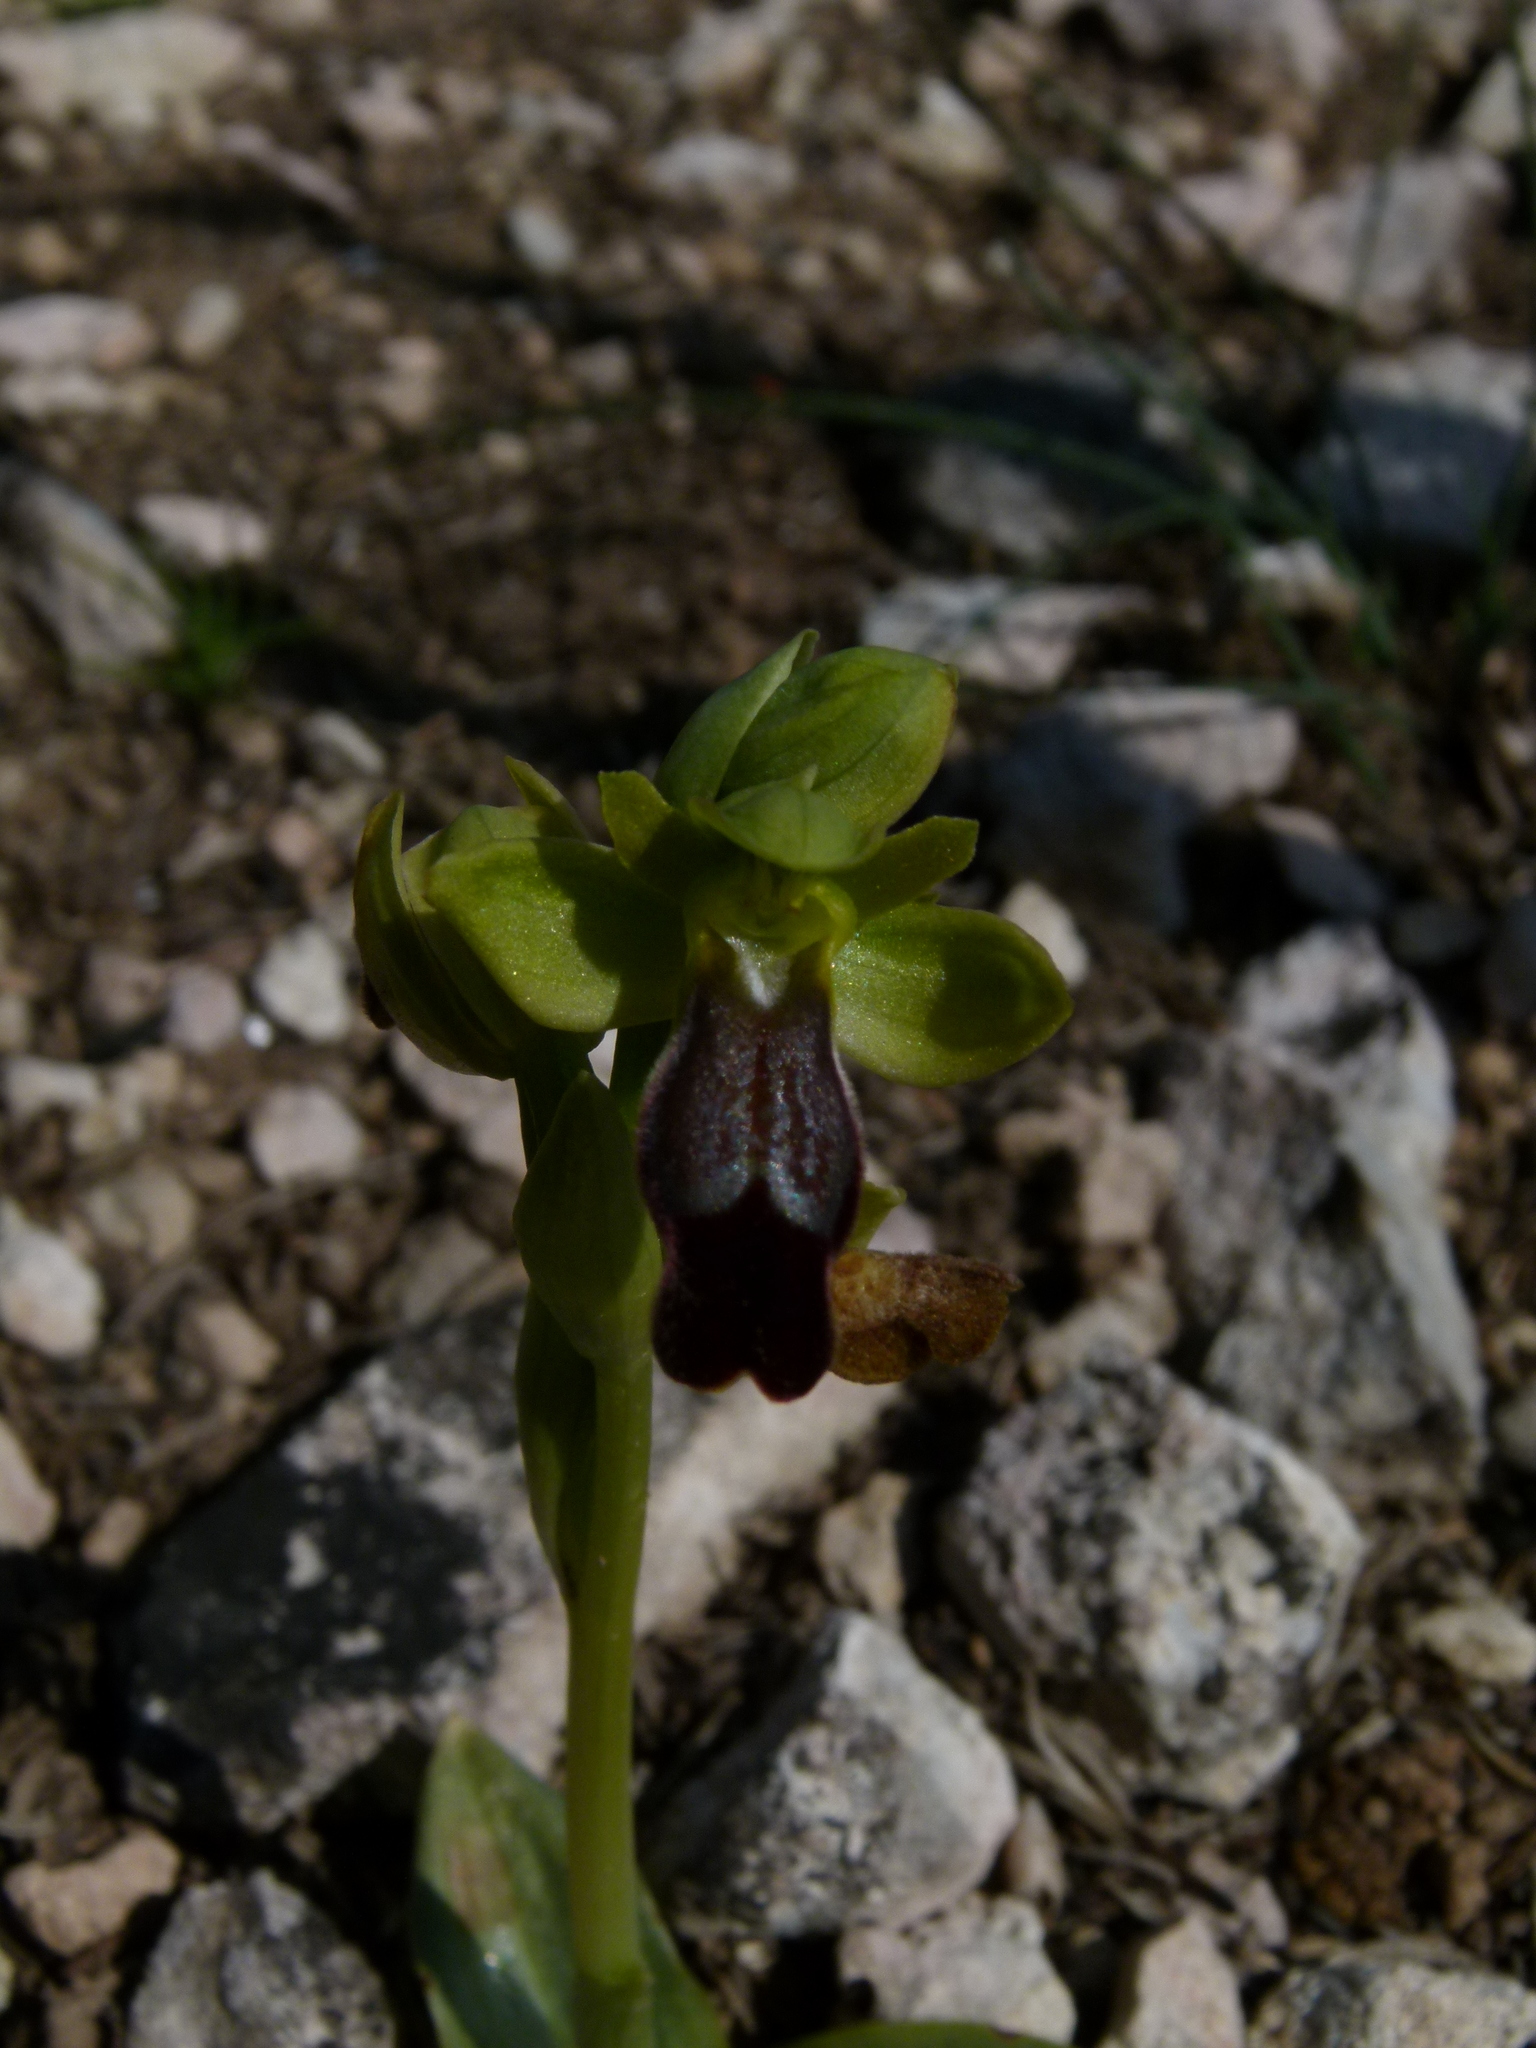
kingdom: Plantae
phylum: Tracheophyta
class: Liliopsida
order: Asparagales
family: Orchidaceae
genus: Ophrys
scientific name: Ophrys fusca
